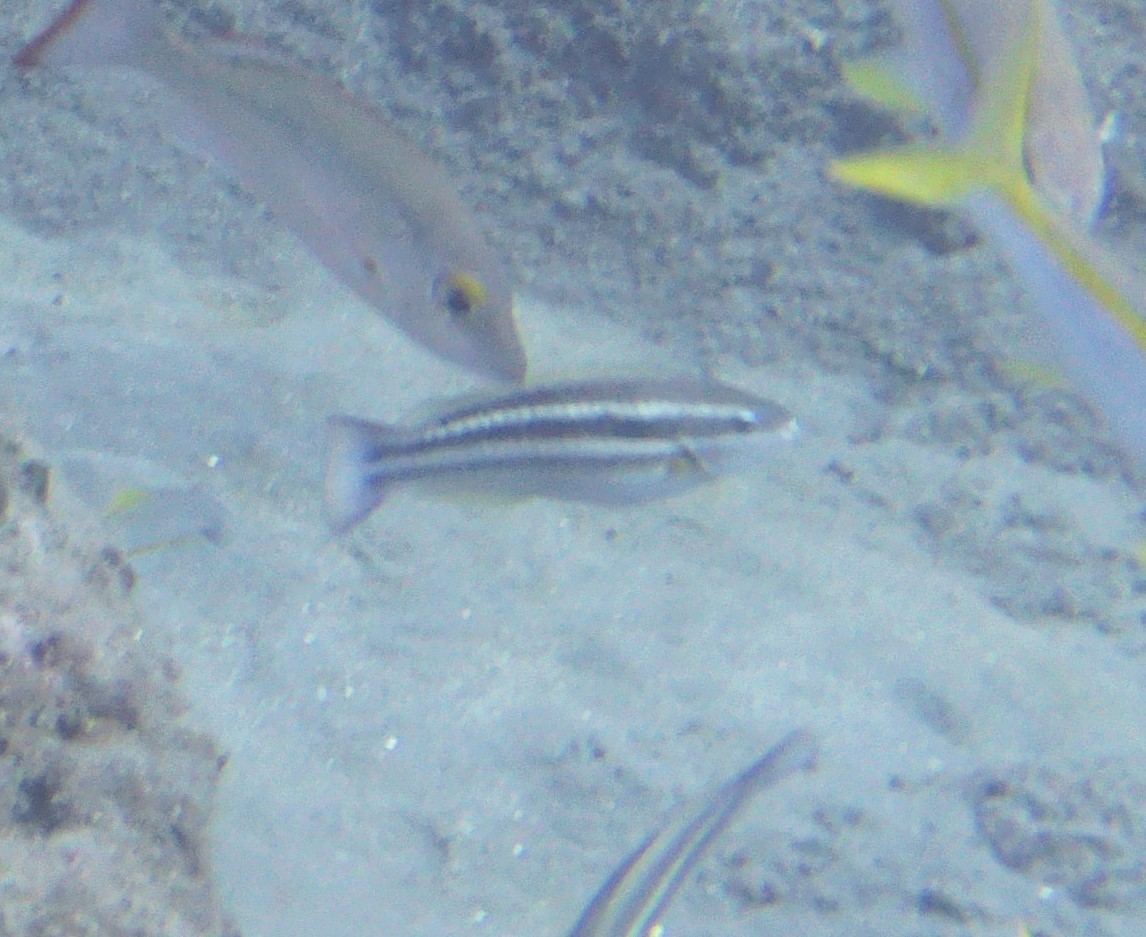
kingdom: Animalia
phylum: Chordata
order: Perciformes
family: Scaridae
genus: Scarus
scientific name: Scarus iseri
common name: Striped parrotfish
